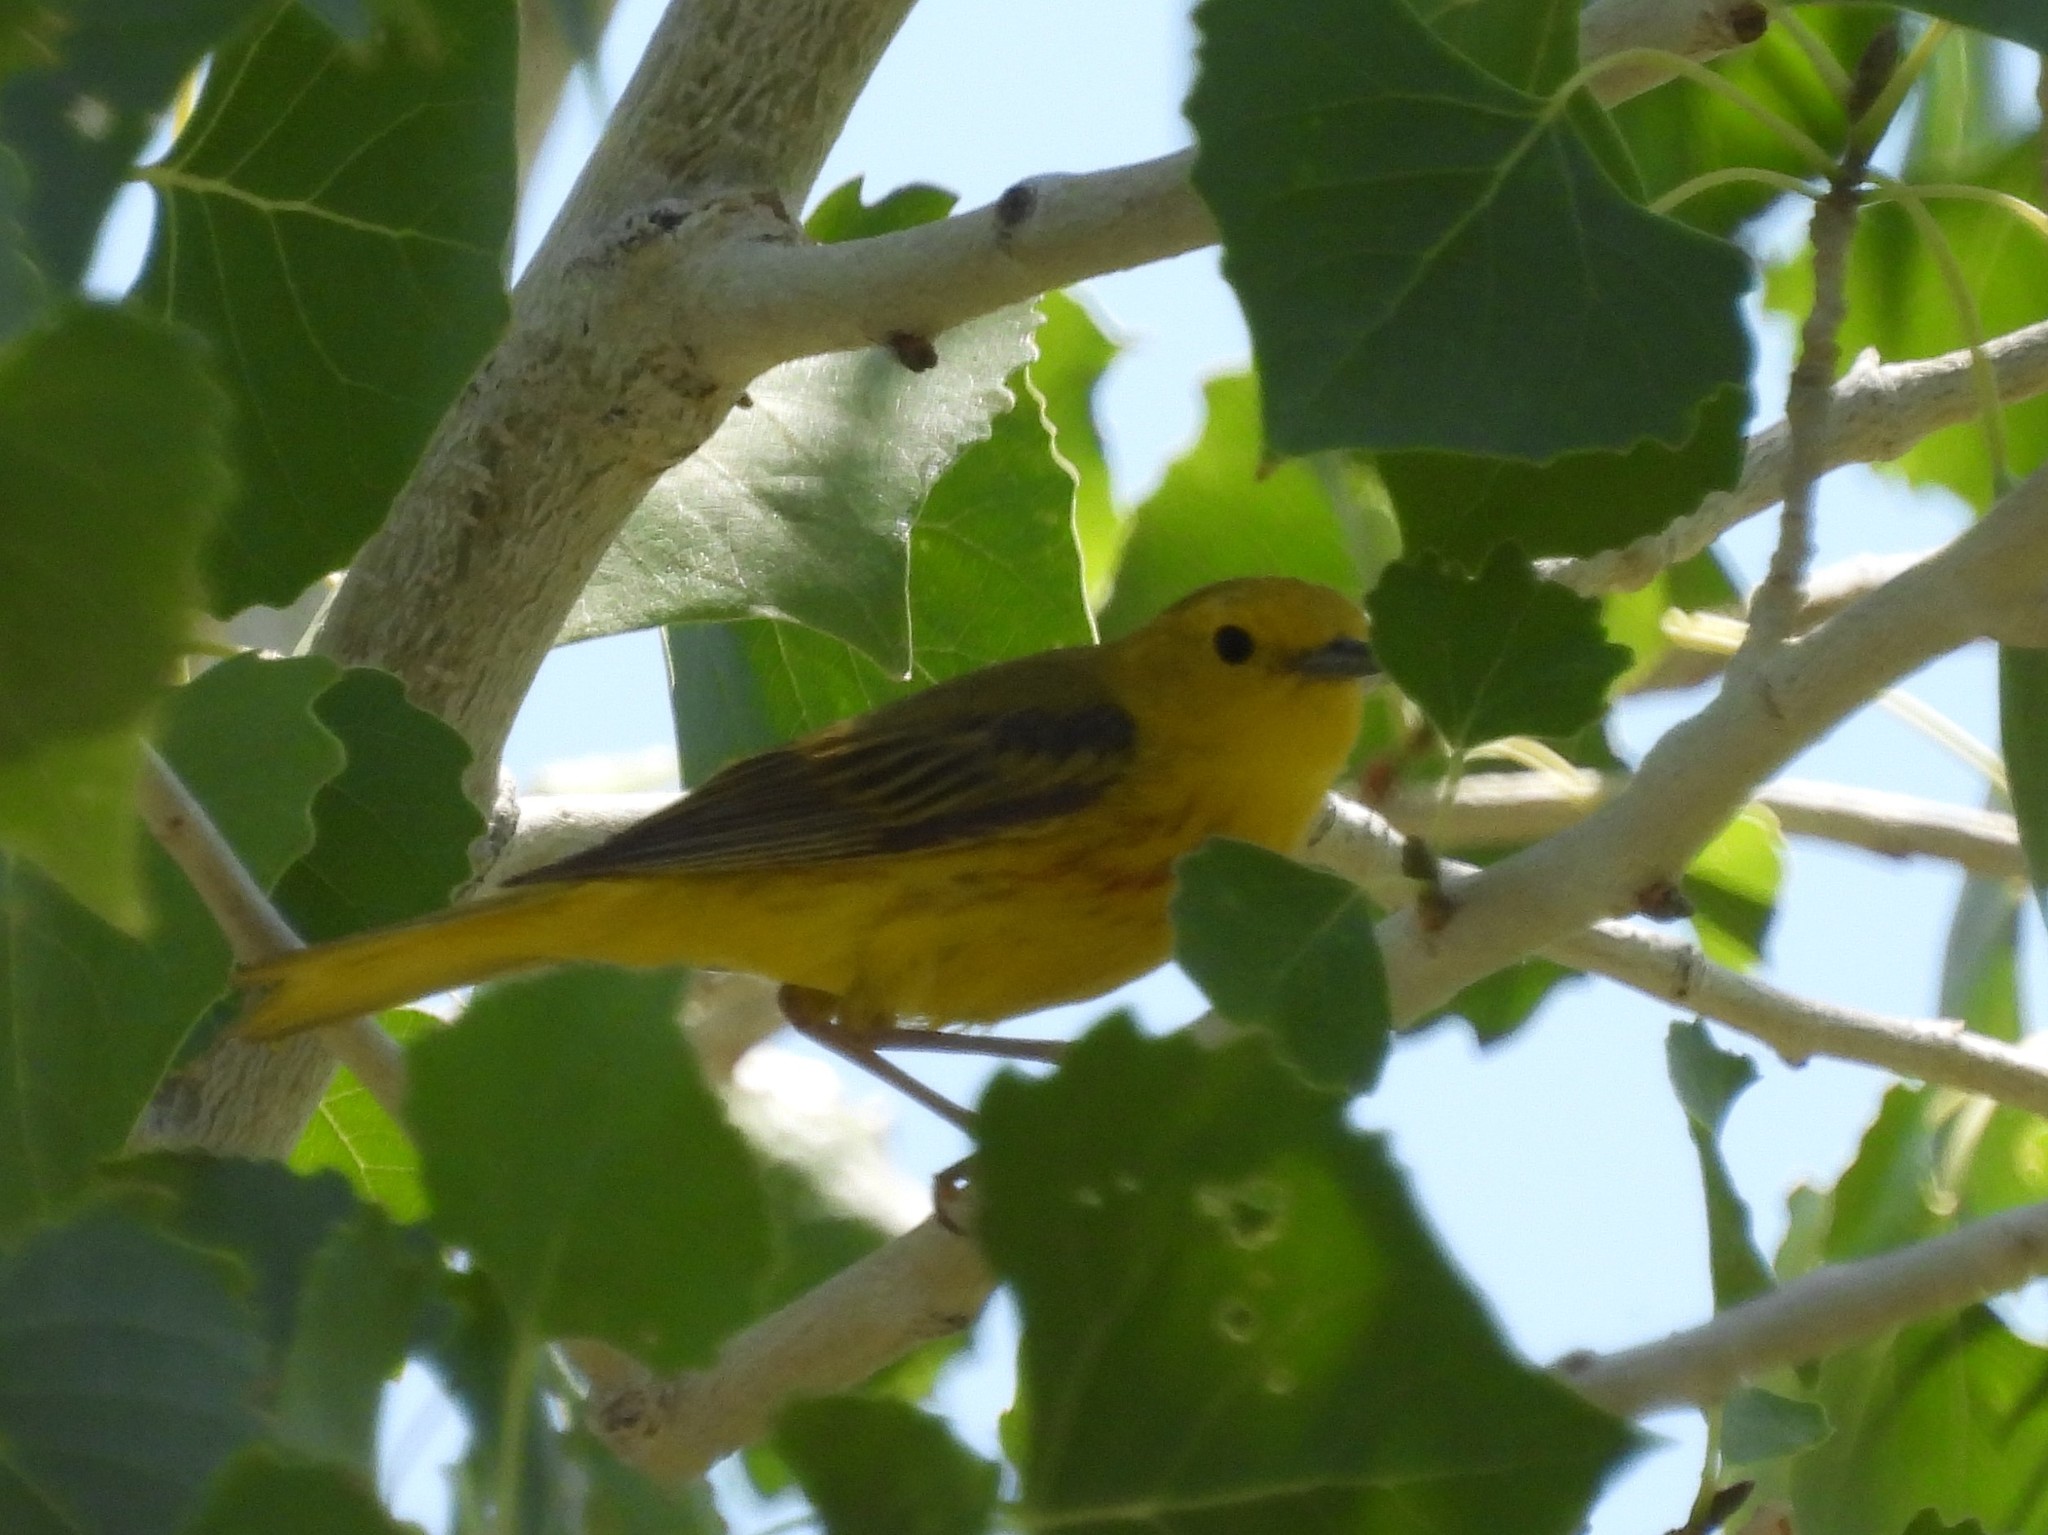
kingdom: Animalia
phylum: Chordata
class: Aves
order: Passeriformes
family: Parulidae
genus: Setophaga
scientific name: Setophaga petechia
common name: Yellow warbler
